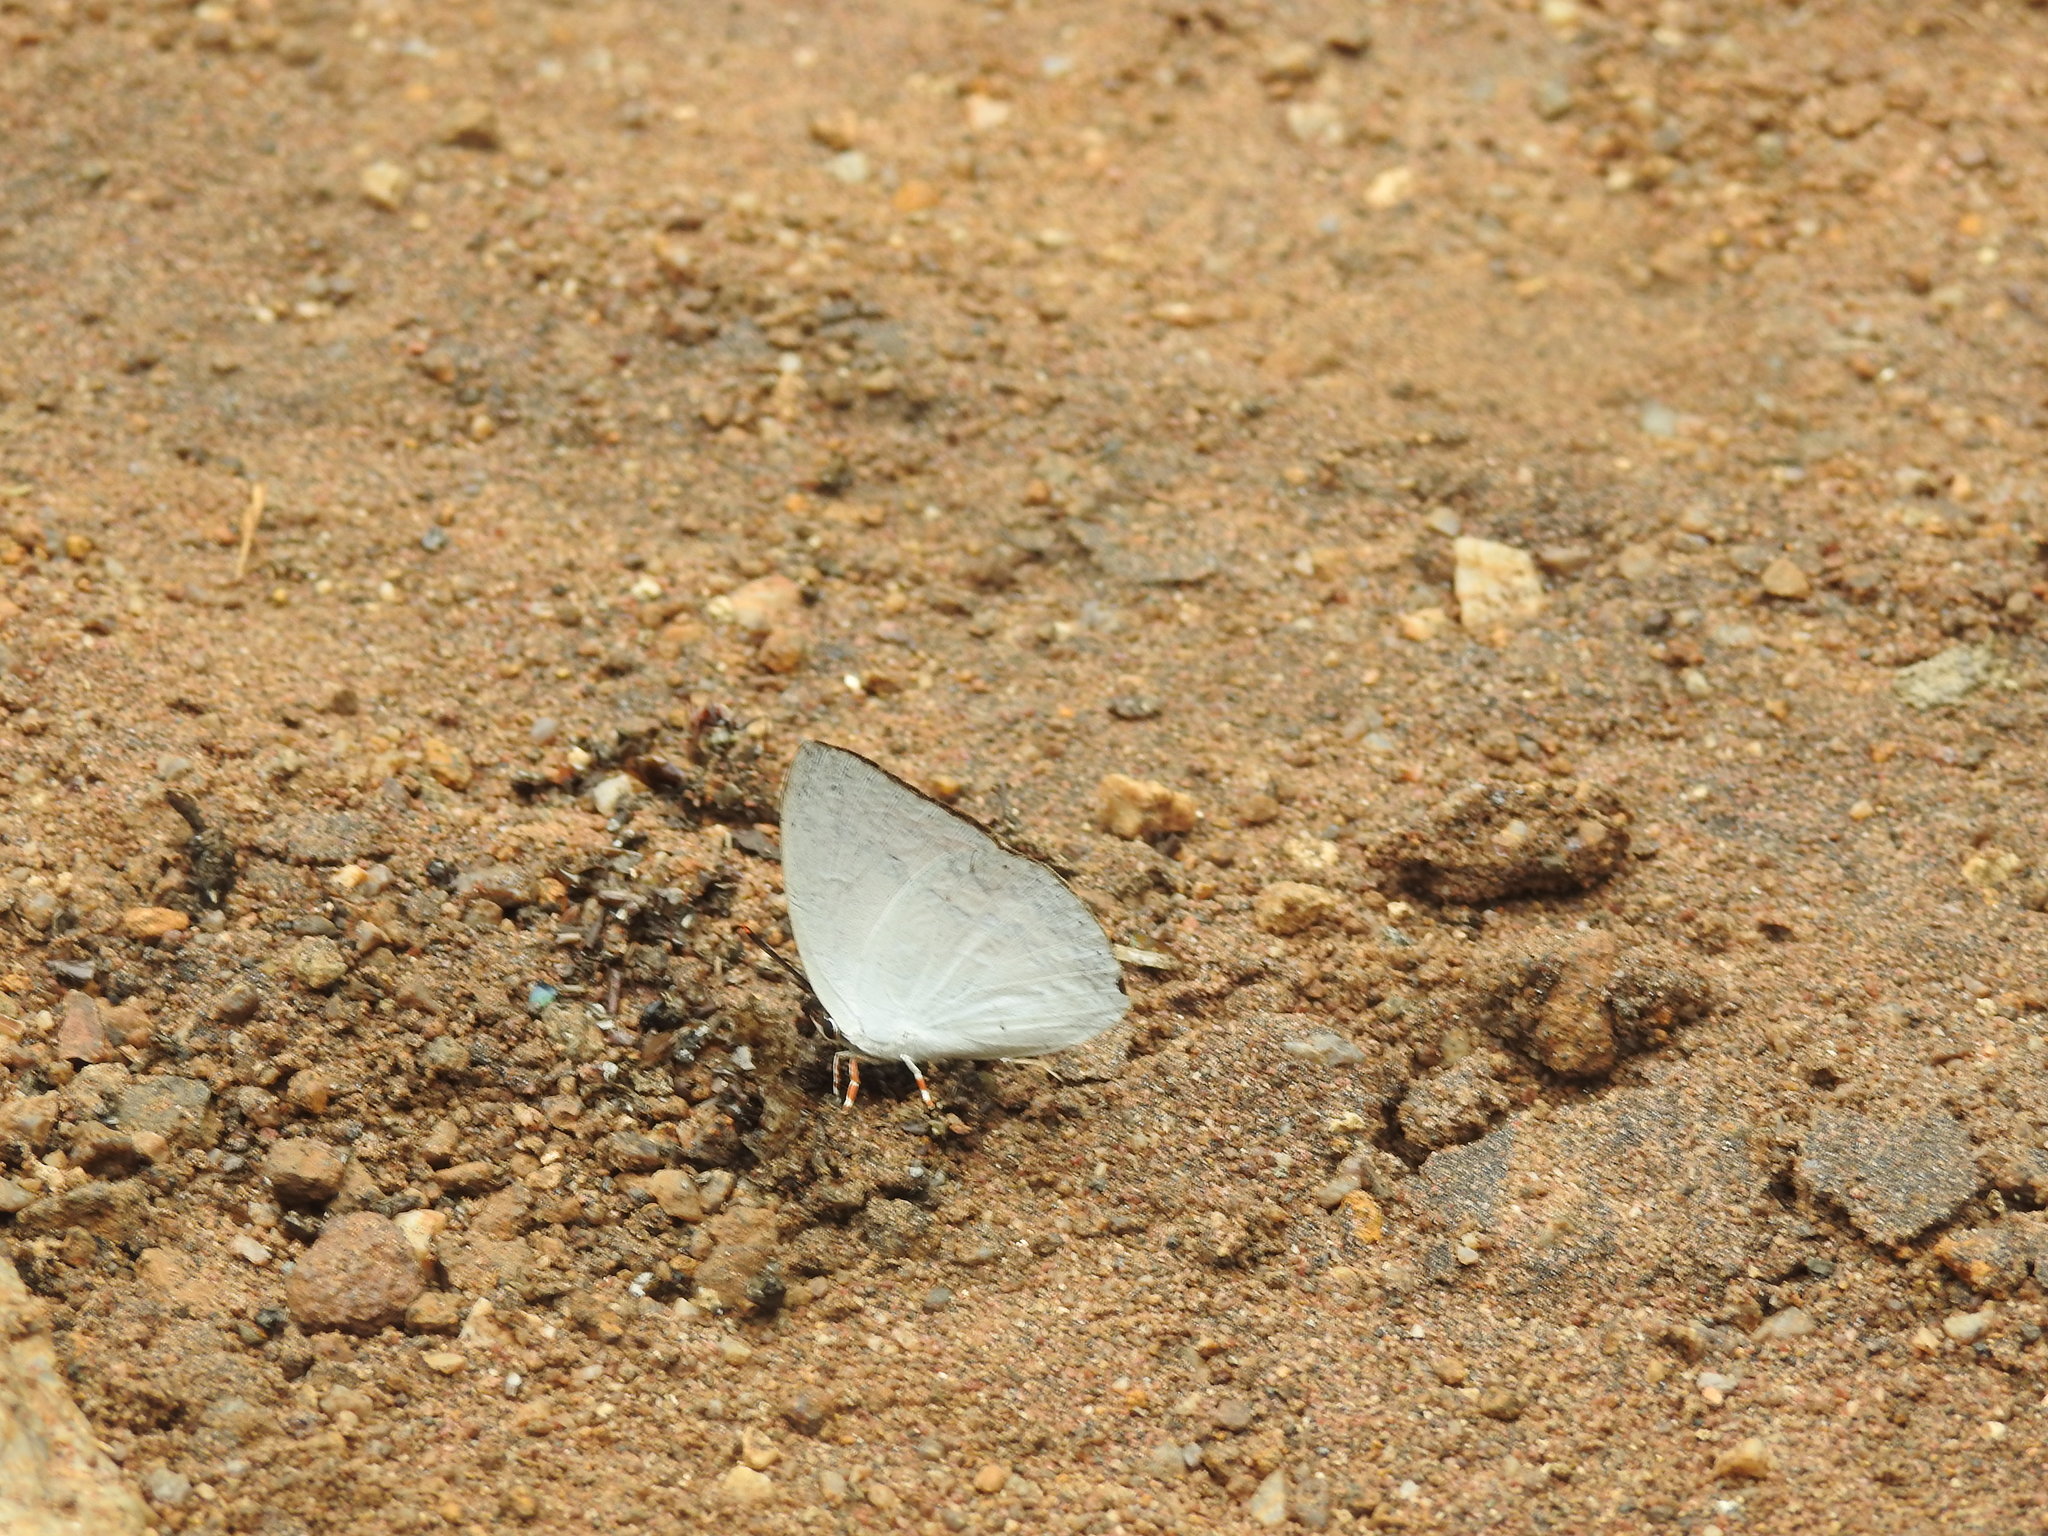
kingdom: Animalia
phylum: Arthropoda
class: Insecta
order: Lepidoptera
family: Lycaenidae
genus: Curetis
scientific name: Curetis thetis
